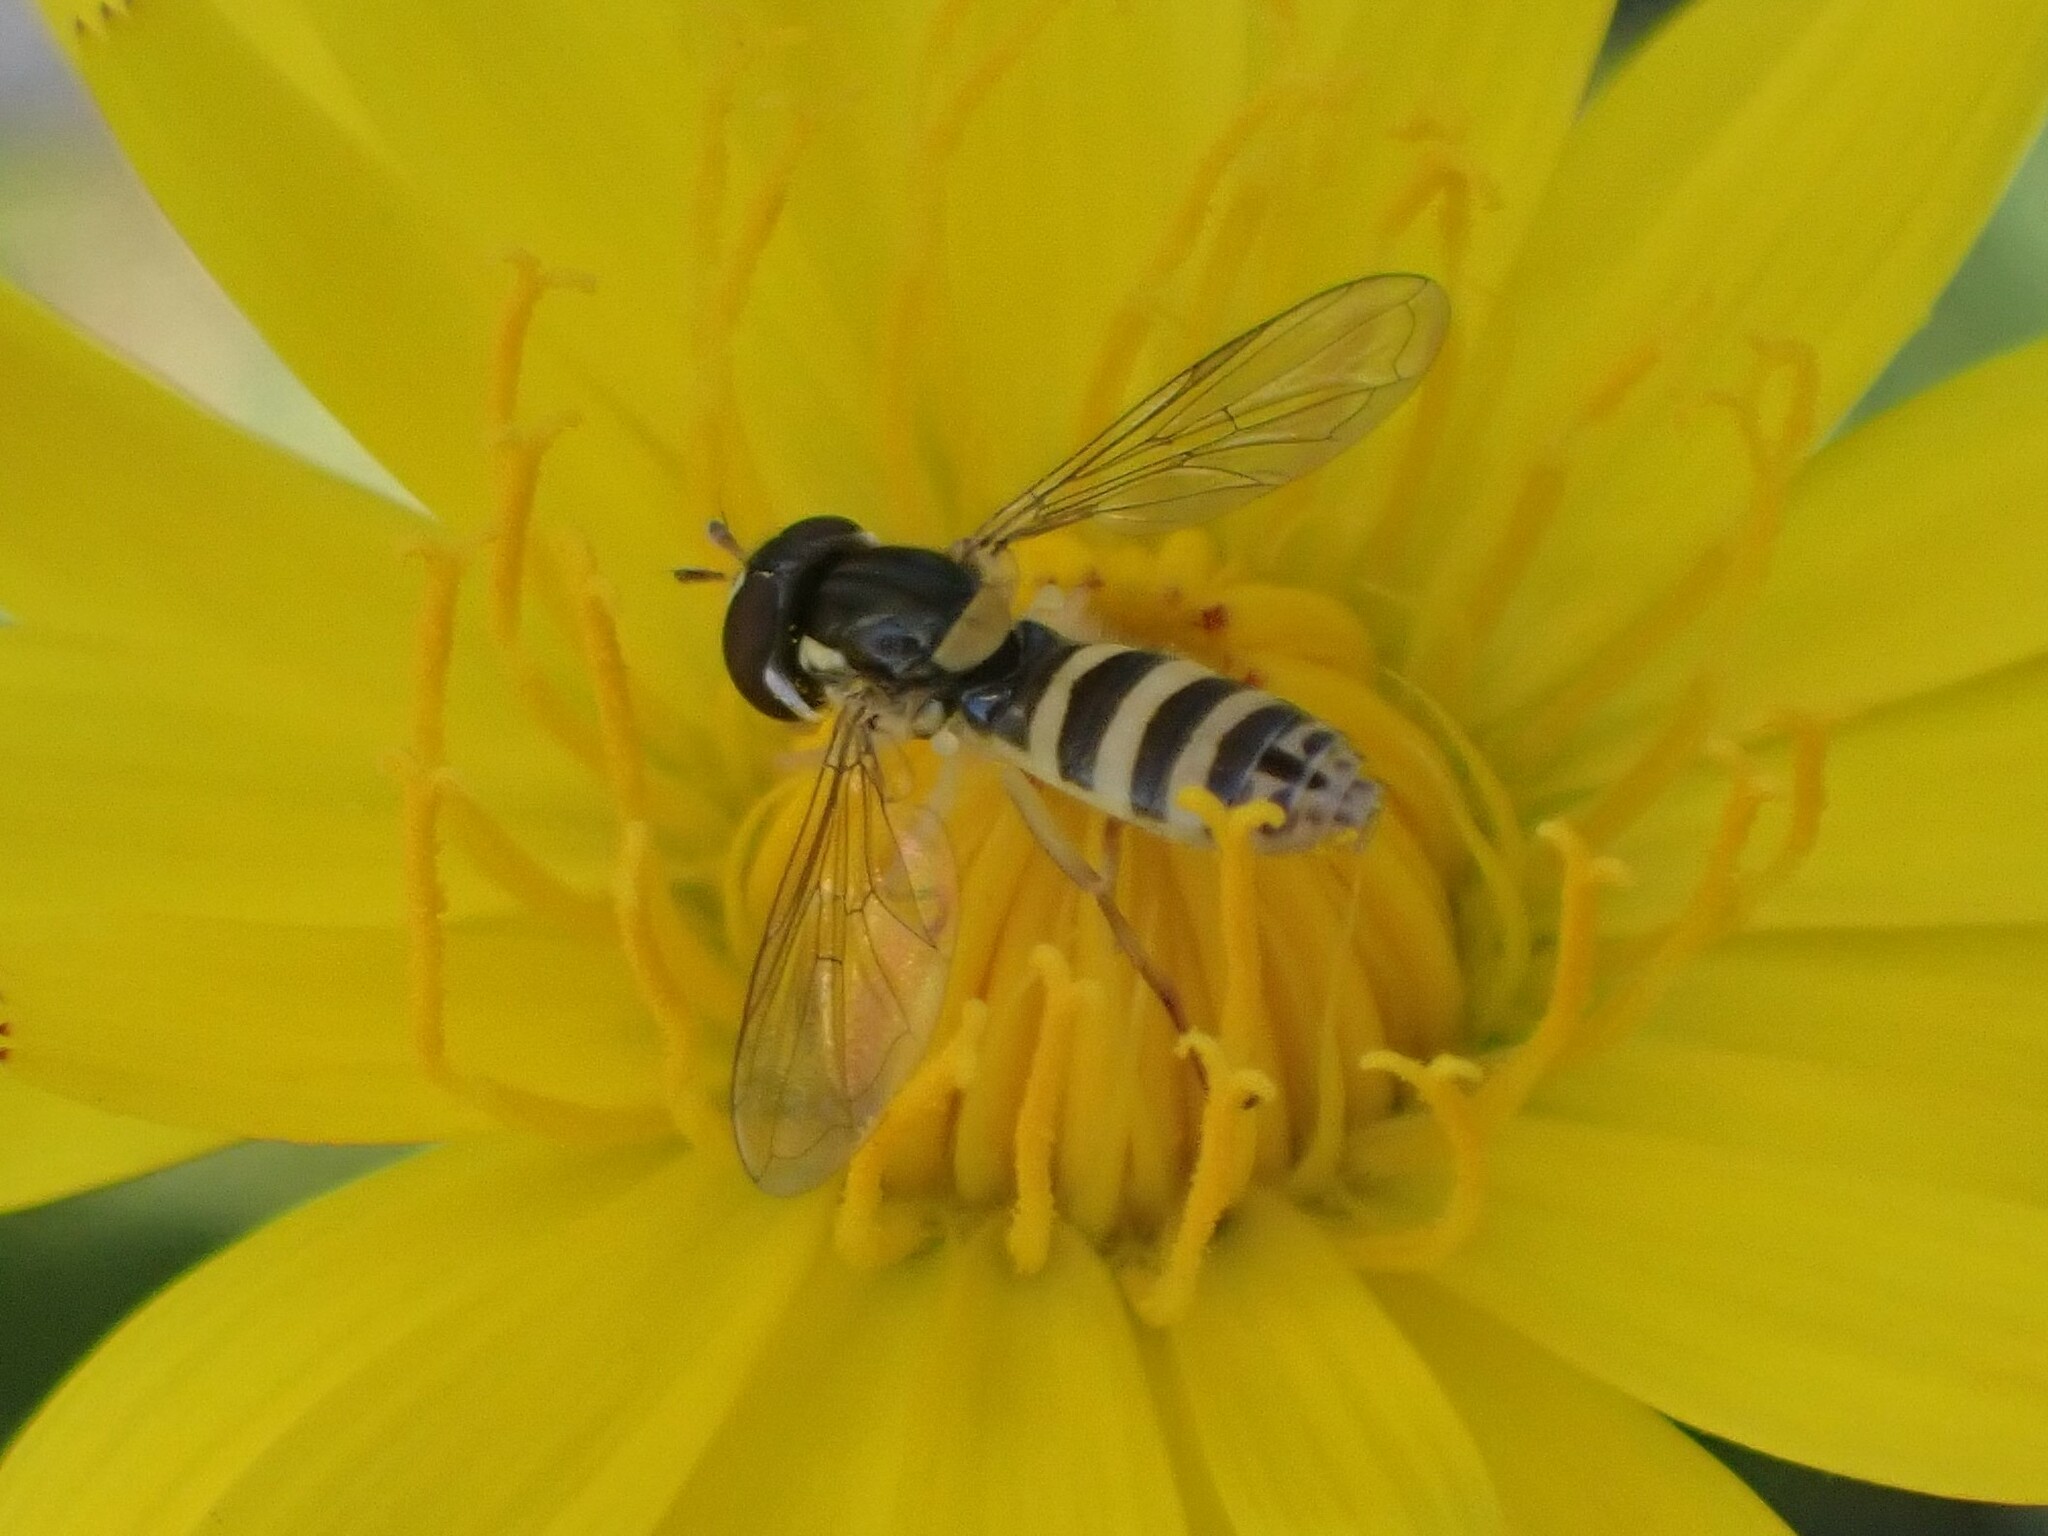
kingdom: Animalia
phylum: Arthropoda
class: Insecta
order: Diptera
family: Syrphidae
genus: Sphaerophoria
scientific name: Sphaerophoria sulphuripes
